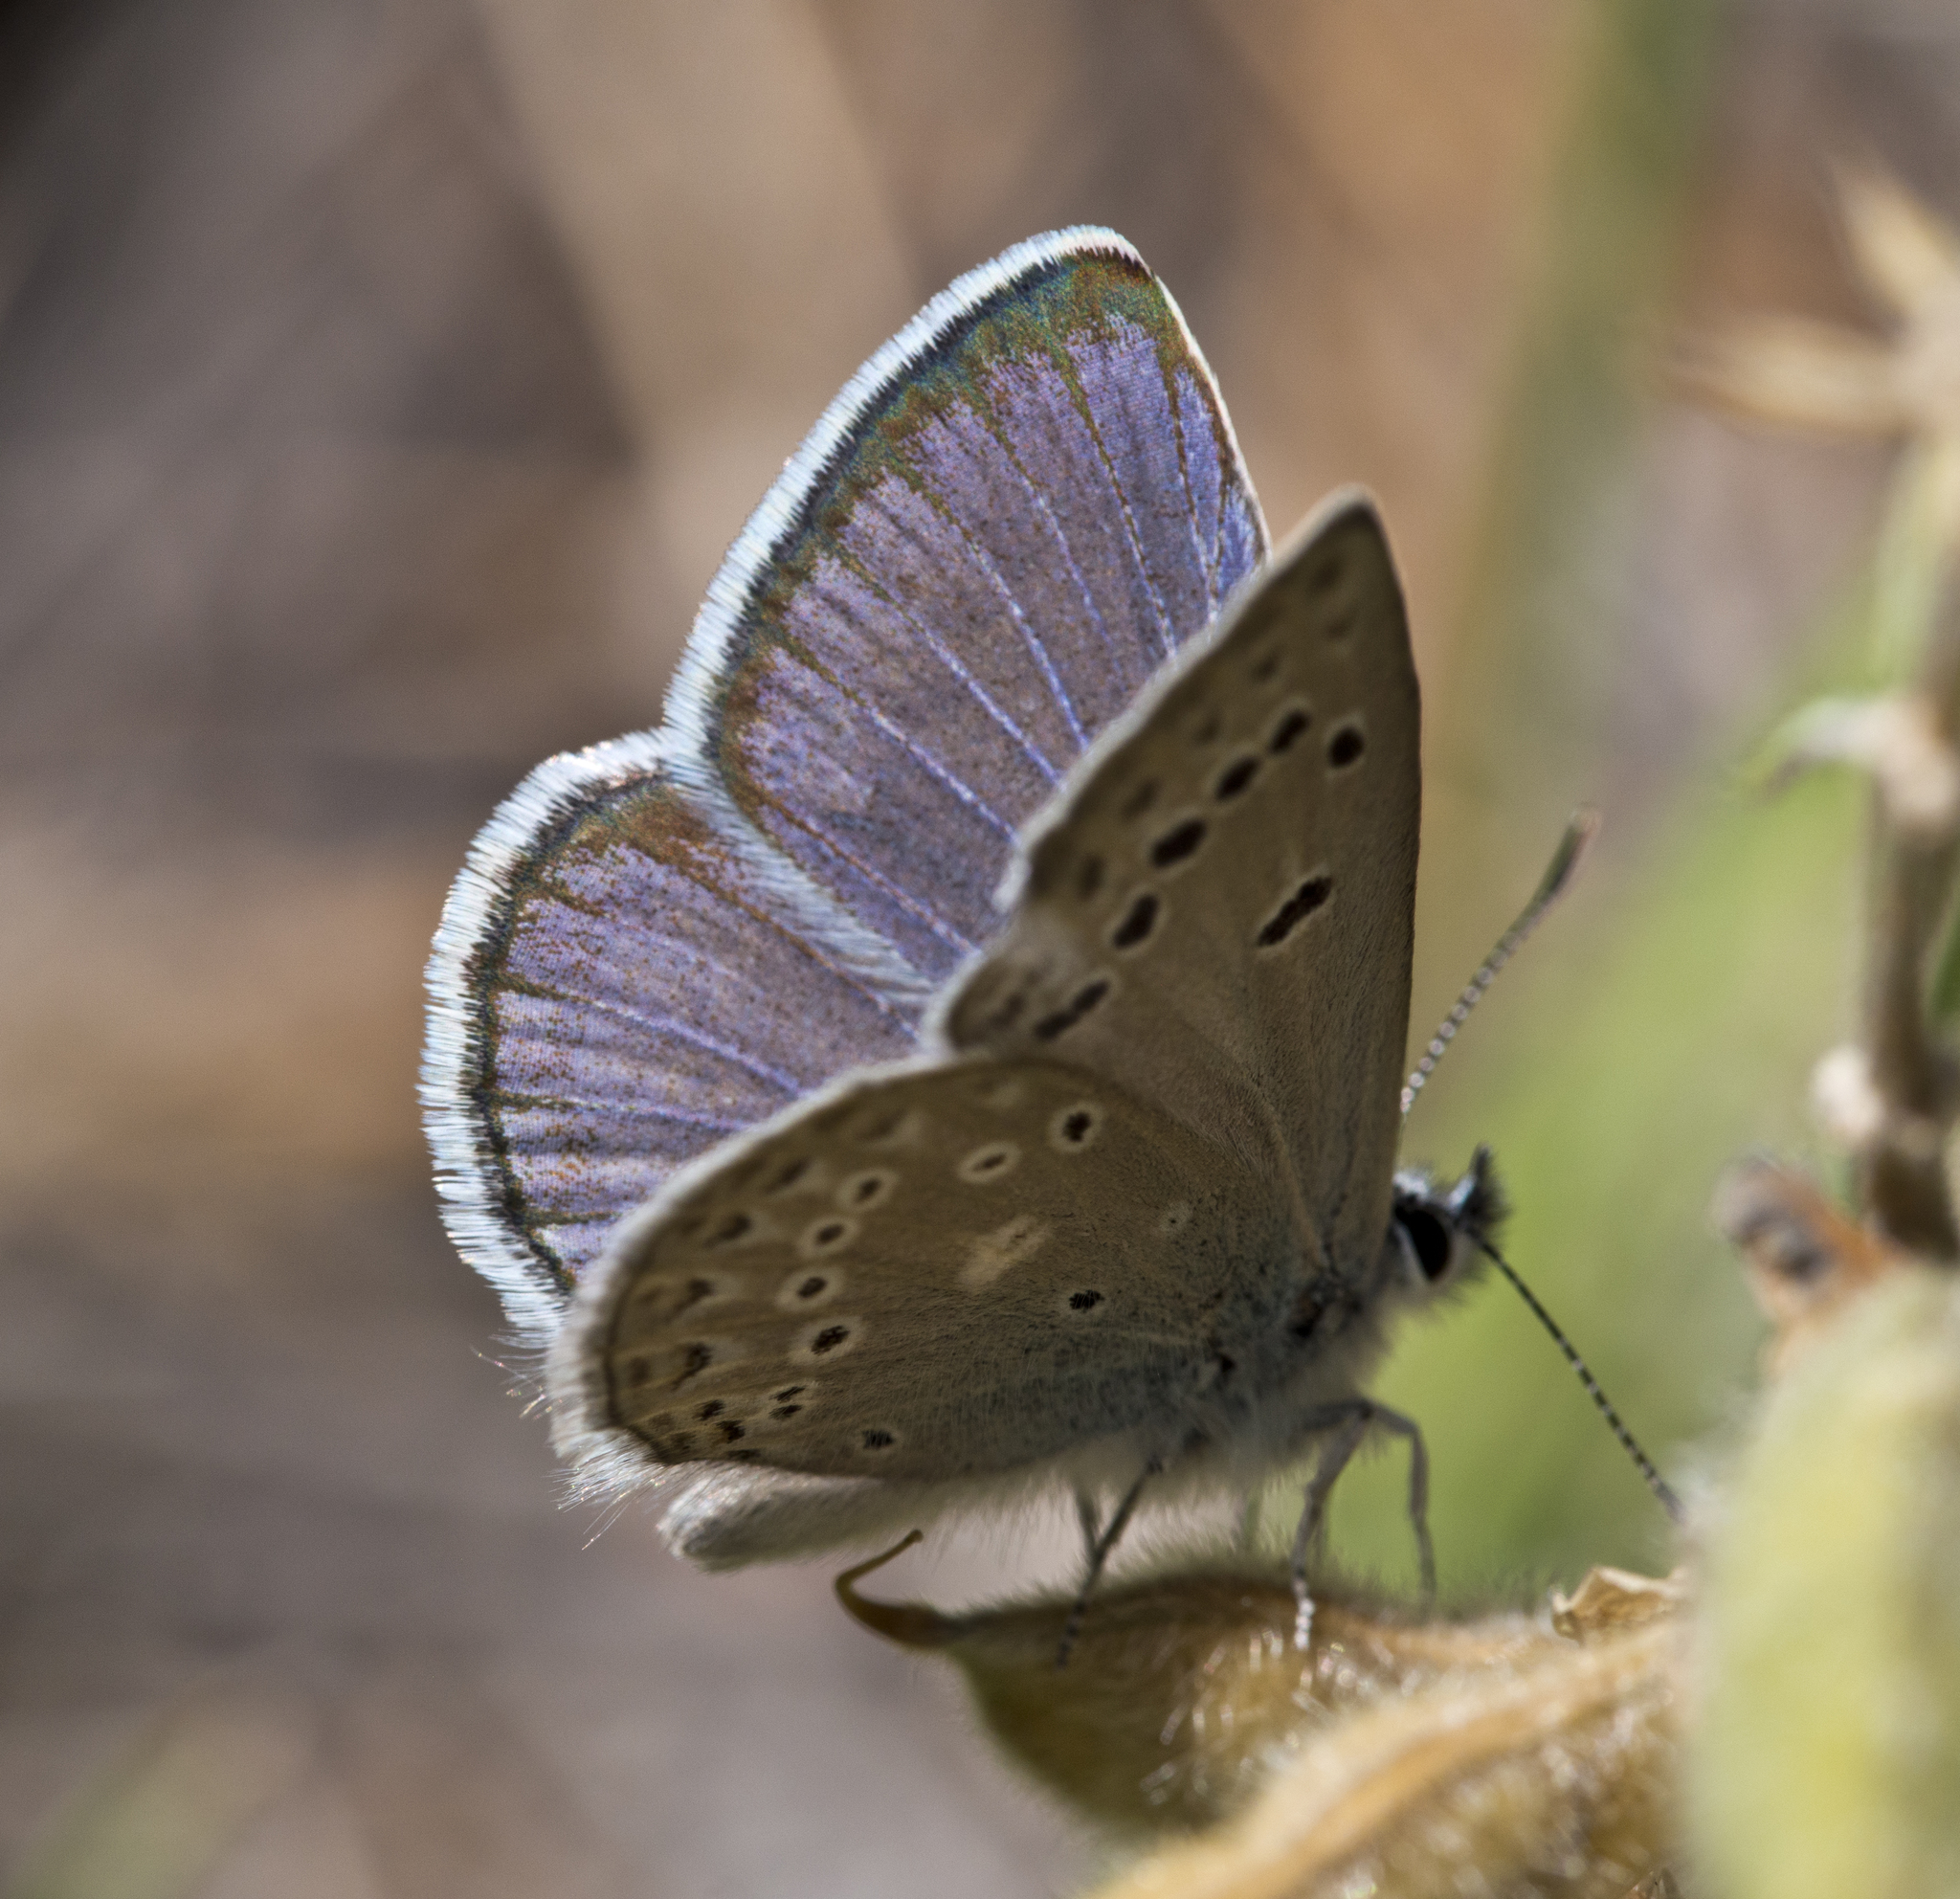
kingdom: Animalia
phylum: Arthropoda
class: Insecta
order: Lepidoptera
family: Lycaenidae
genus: Icaricia
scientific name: Icaricia icarioides
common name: Boisduval's blue
